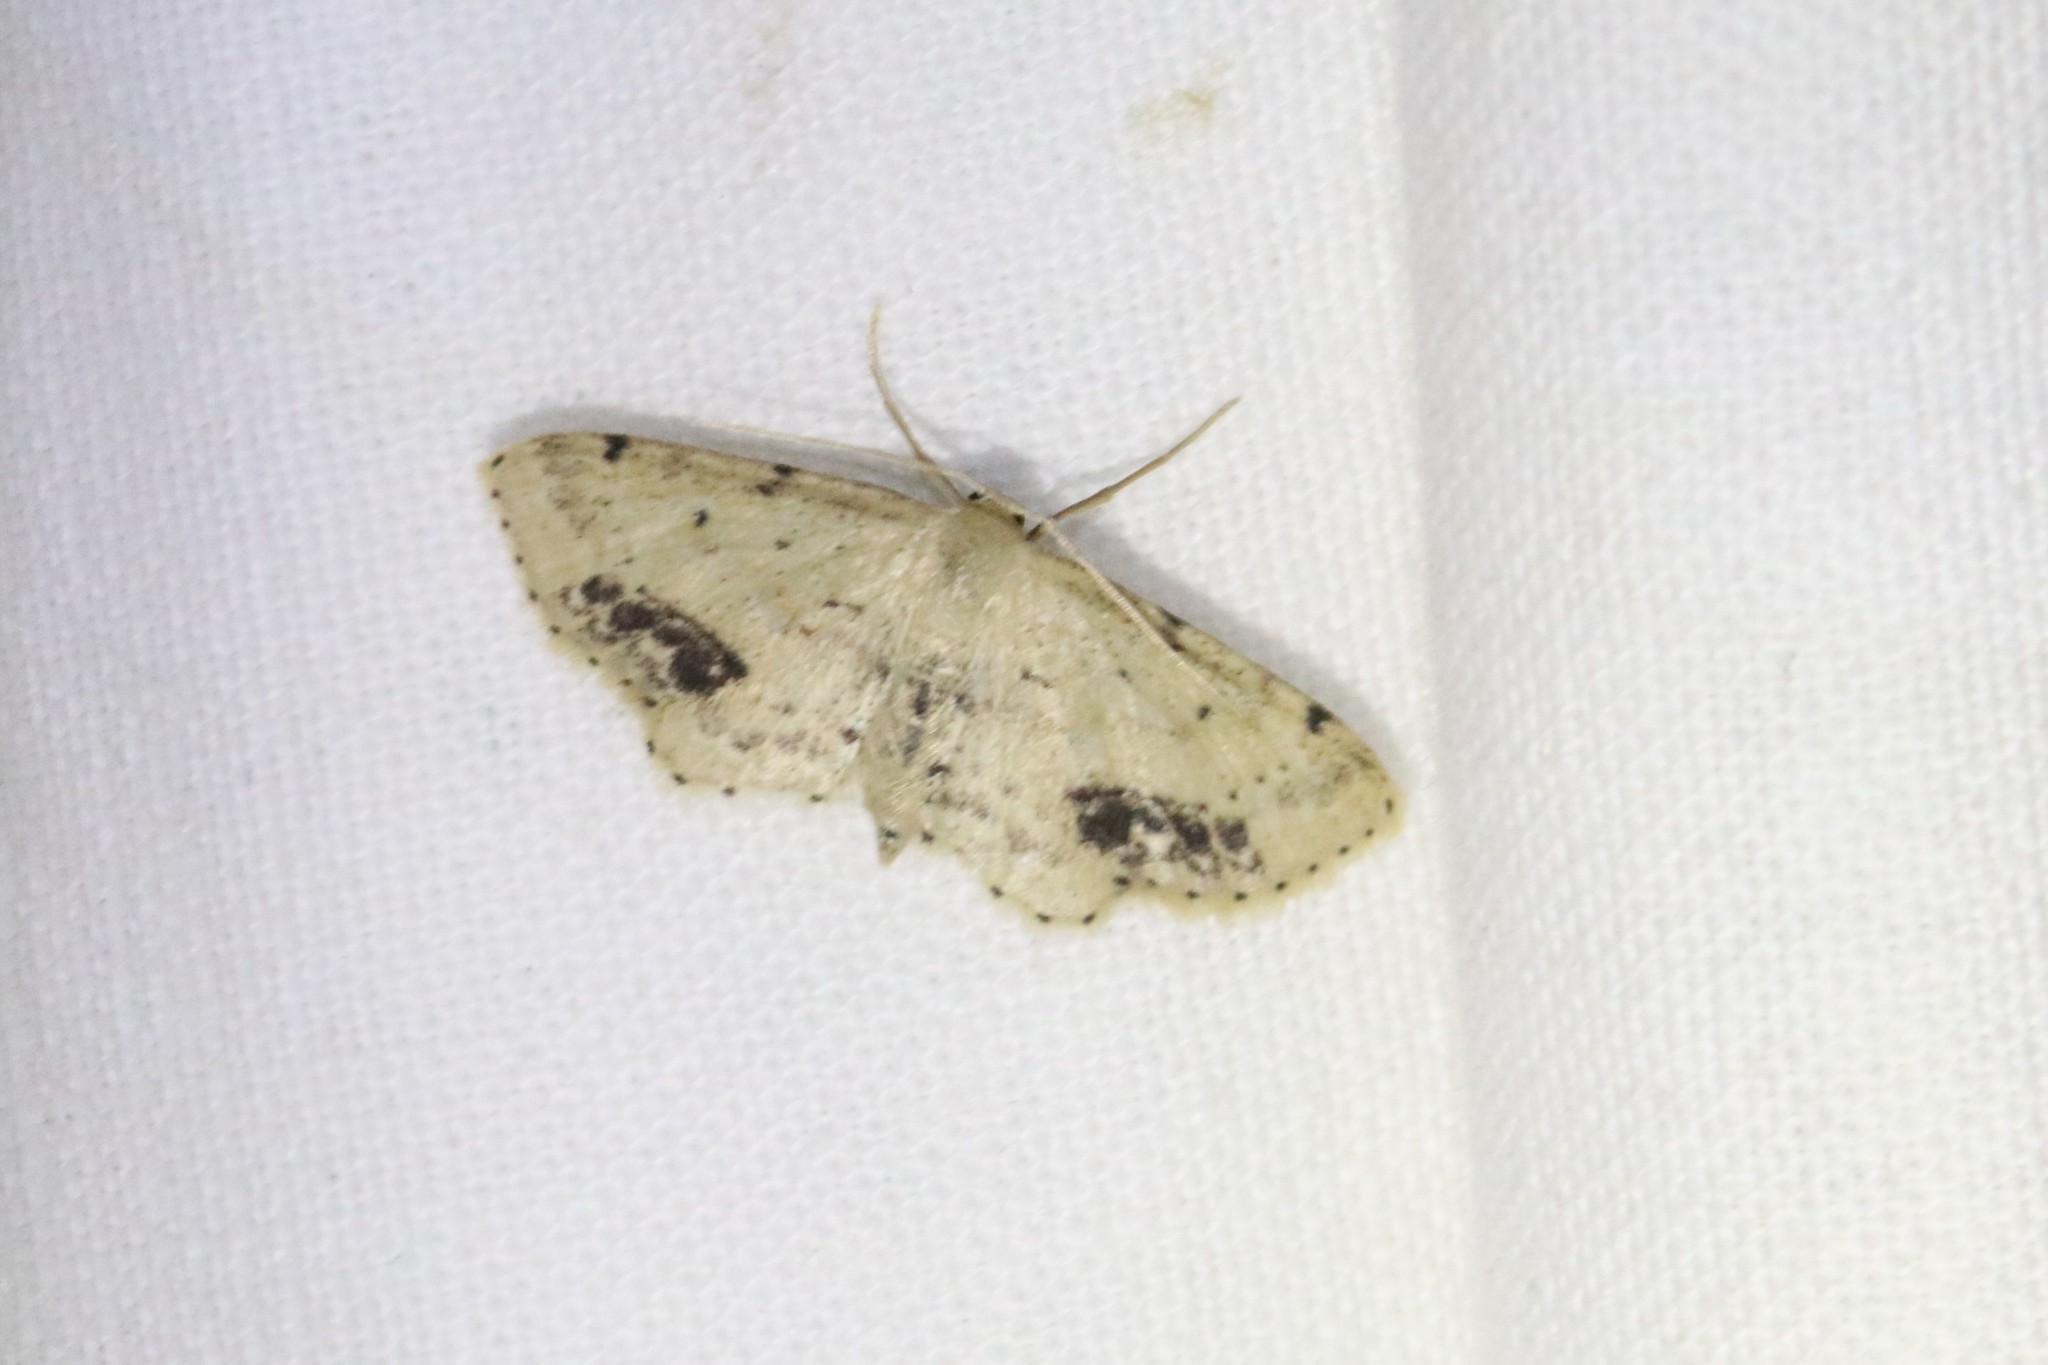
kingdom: Animalia
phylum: Arthropoda
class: Insecta
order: Lepidoptera
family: Geometridae
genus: Idaea
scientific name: Idaea dimidiata
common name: Single-dotted wave
